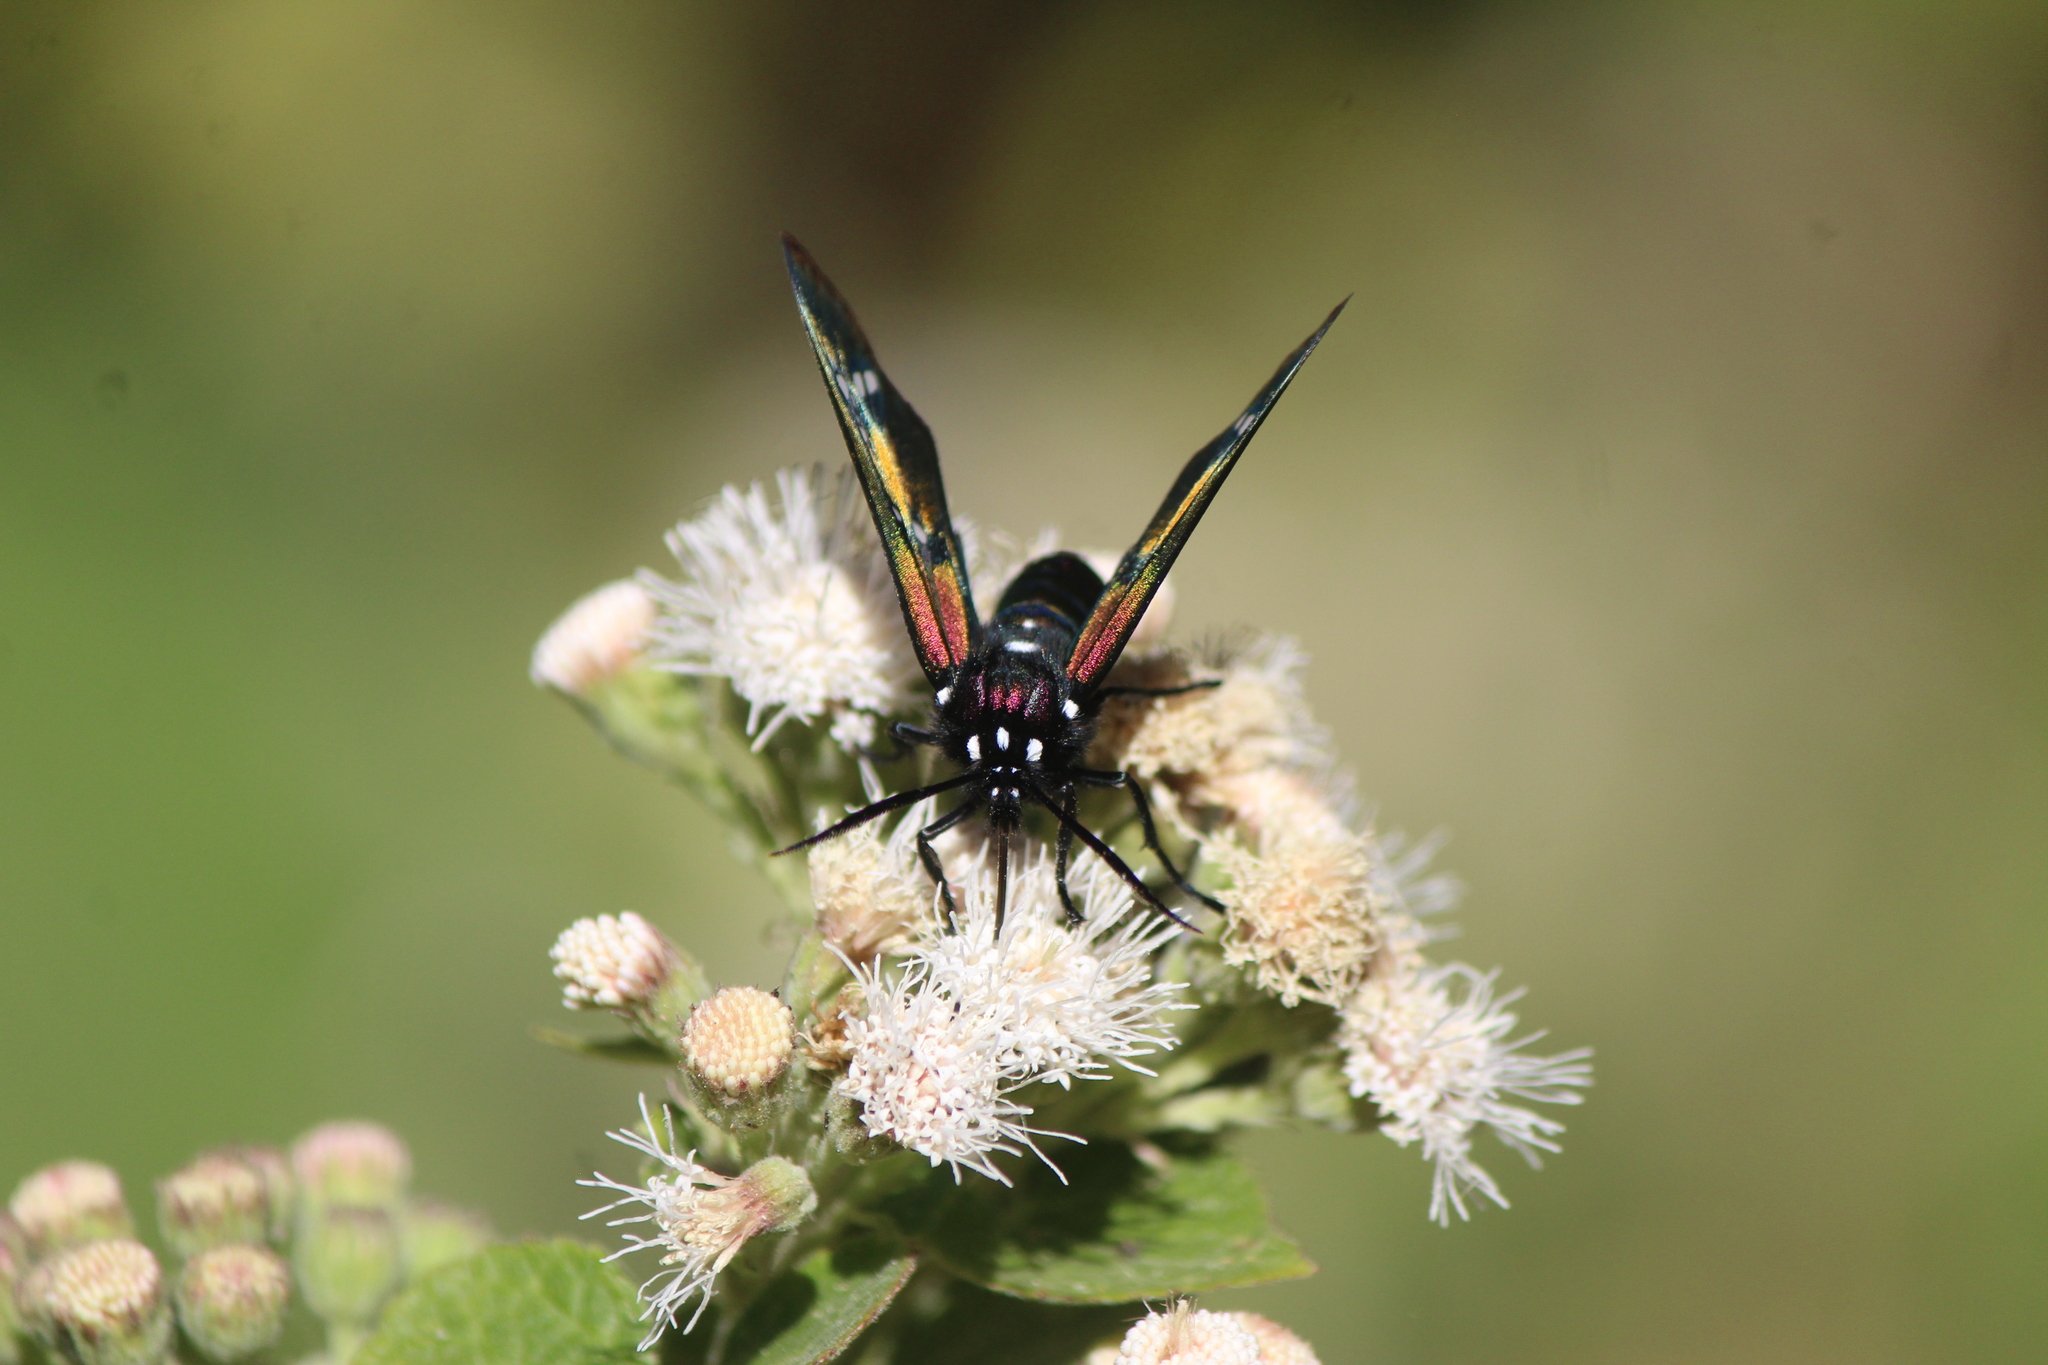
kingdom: Animalia
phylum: Arthropoda
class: Insecta
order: Lepidoptera
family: Erebidae
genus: Chrysocale
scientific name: Chrysocale principalis
